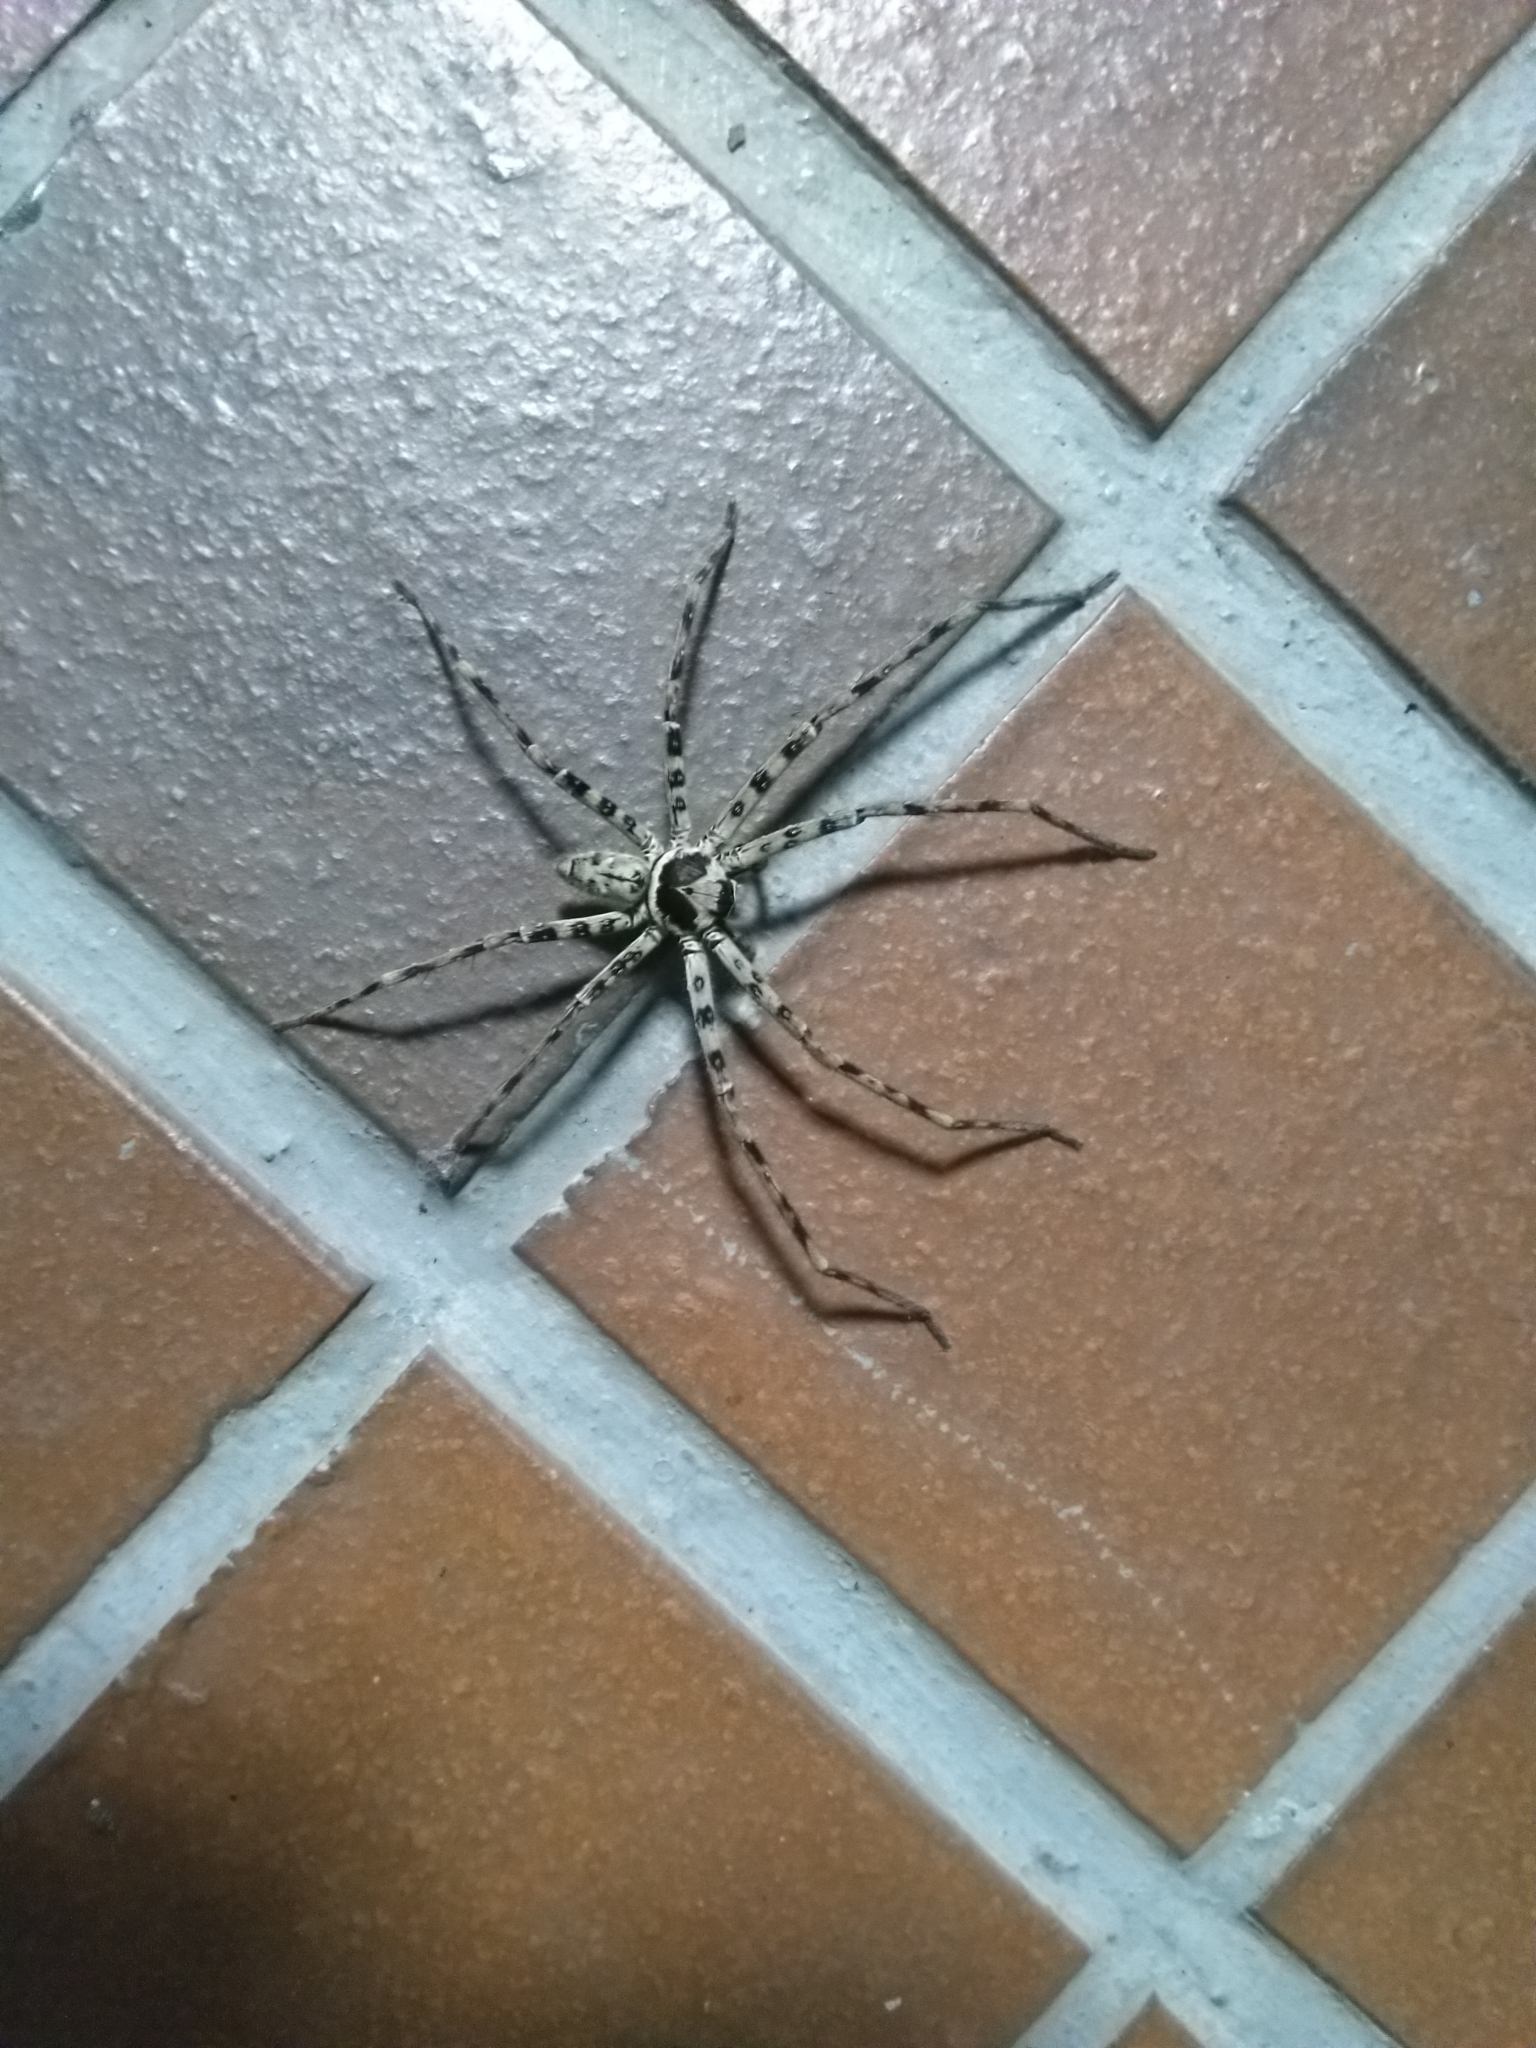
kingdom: Animalia
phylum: Arthropoda
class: Arachnida
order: Araneae
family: Sparassidae
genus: Heteropoda
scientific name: Heteropoda venatoria
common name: Huntsman spider
